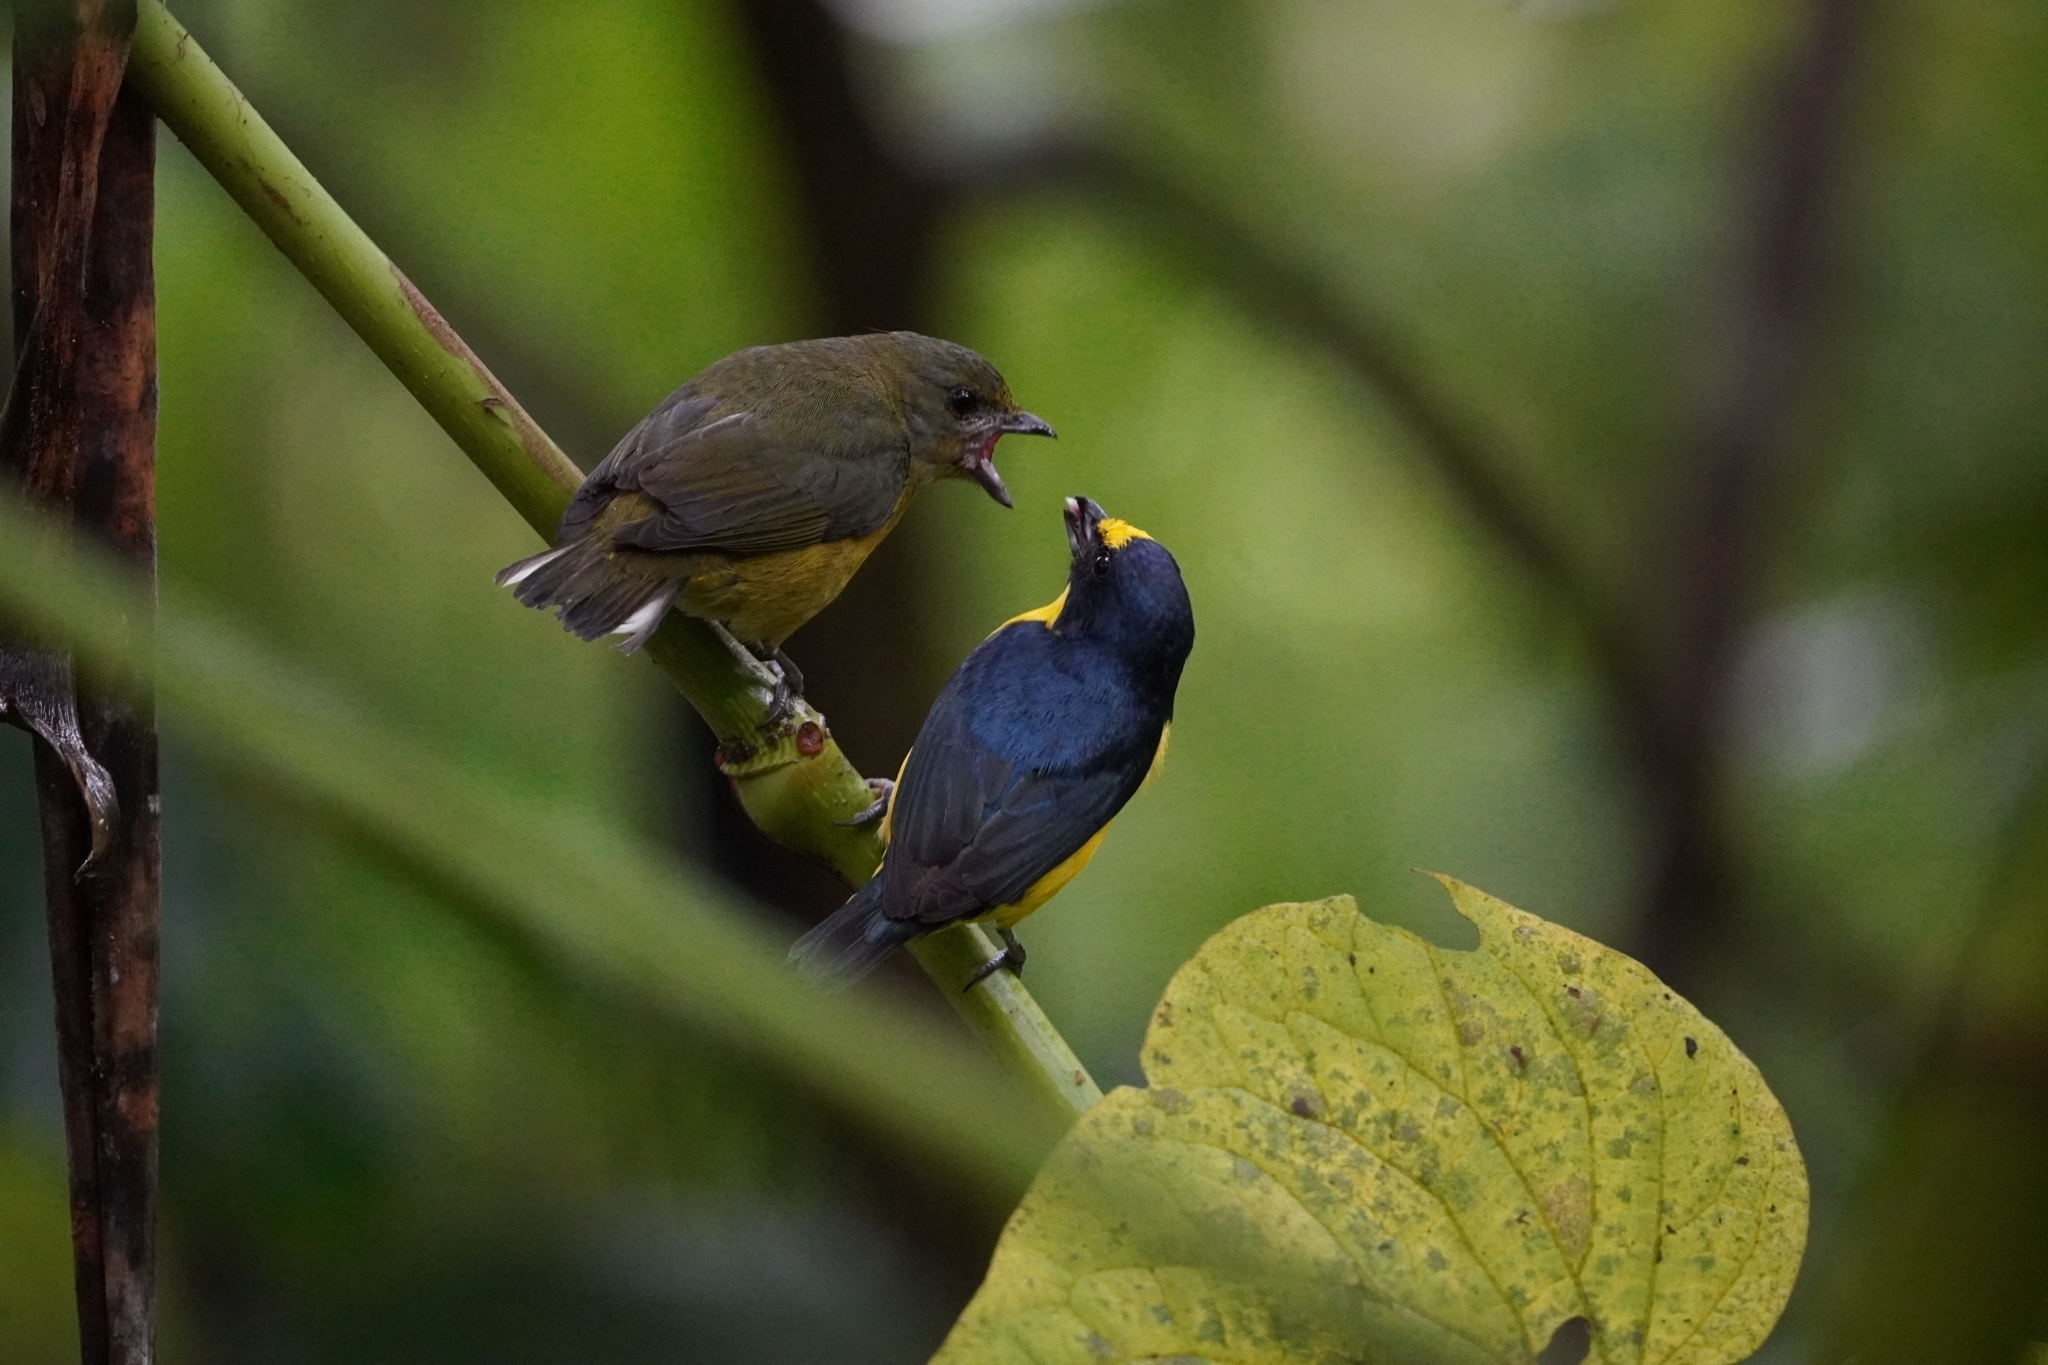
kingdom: Animalia
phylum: Chordata
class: Aves
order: Passeriformes
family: Fringillidae
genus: Euphonia
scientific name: Euphonia hirundinacea
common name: Yellow-throated euphonia
